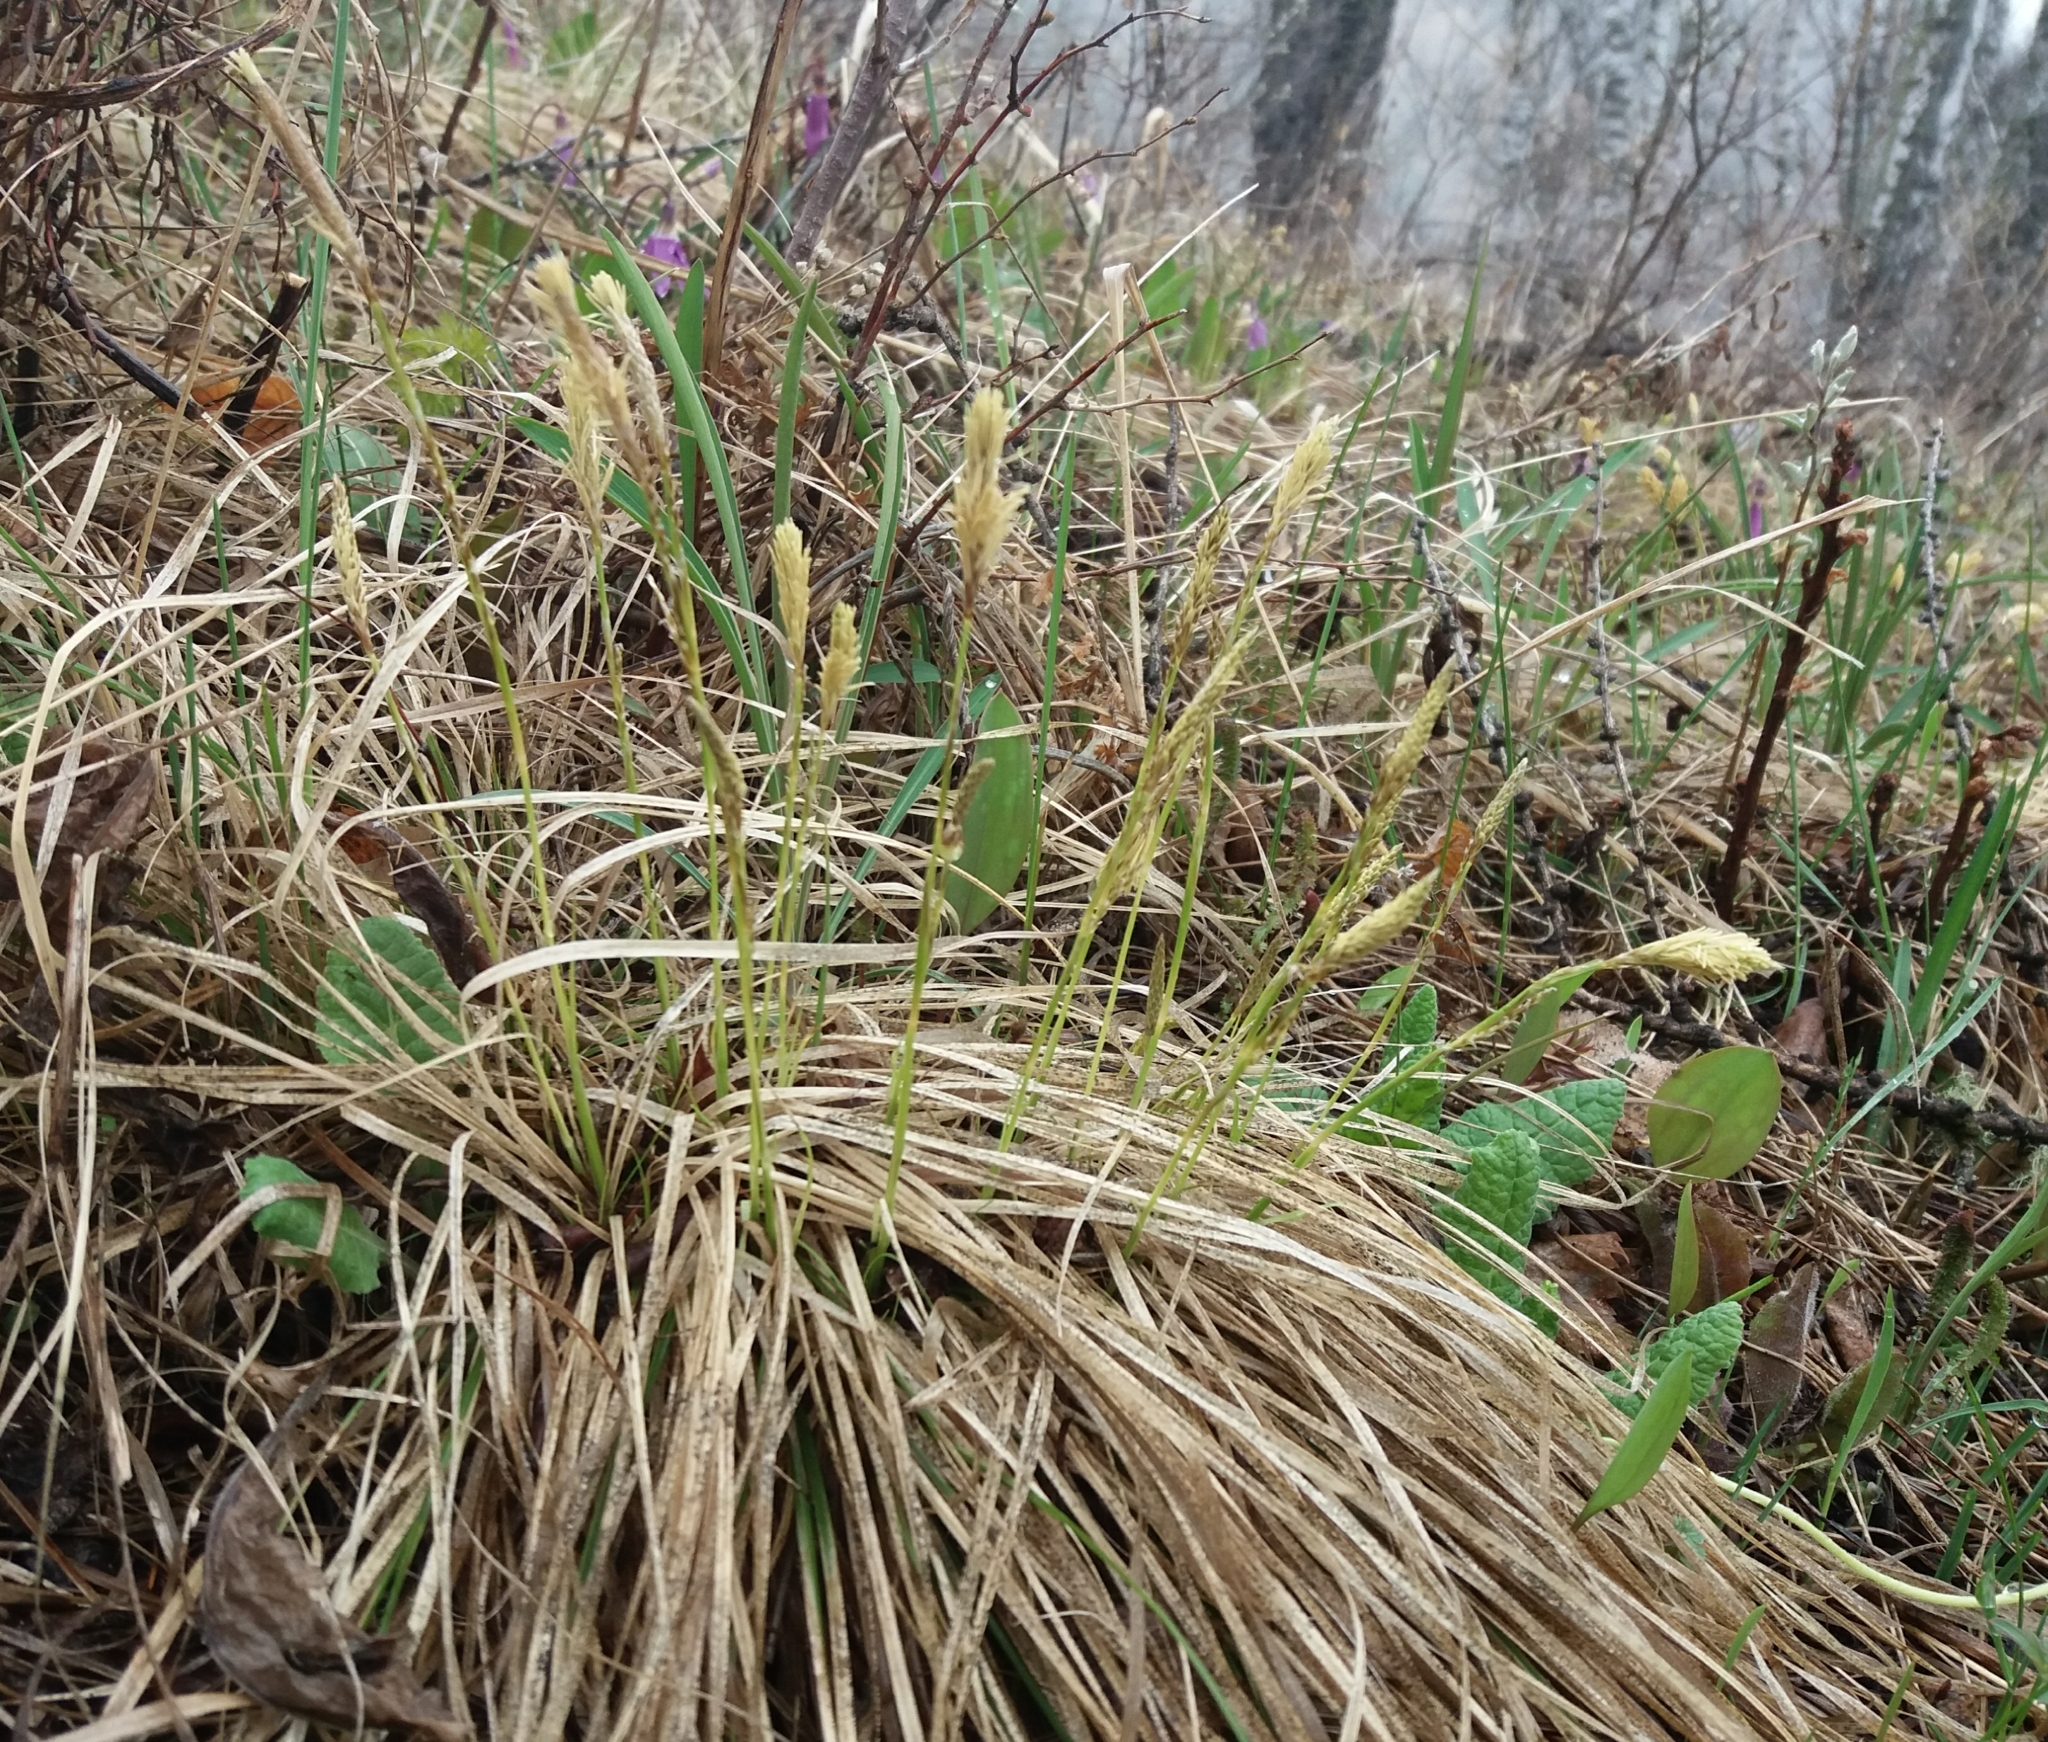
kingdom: Plantae
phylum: Tracheophyta
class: Liliopsida
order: Poales
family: Cyperaceae
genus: Carex
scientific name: Carex pediformis
